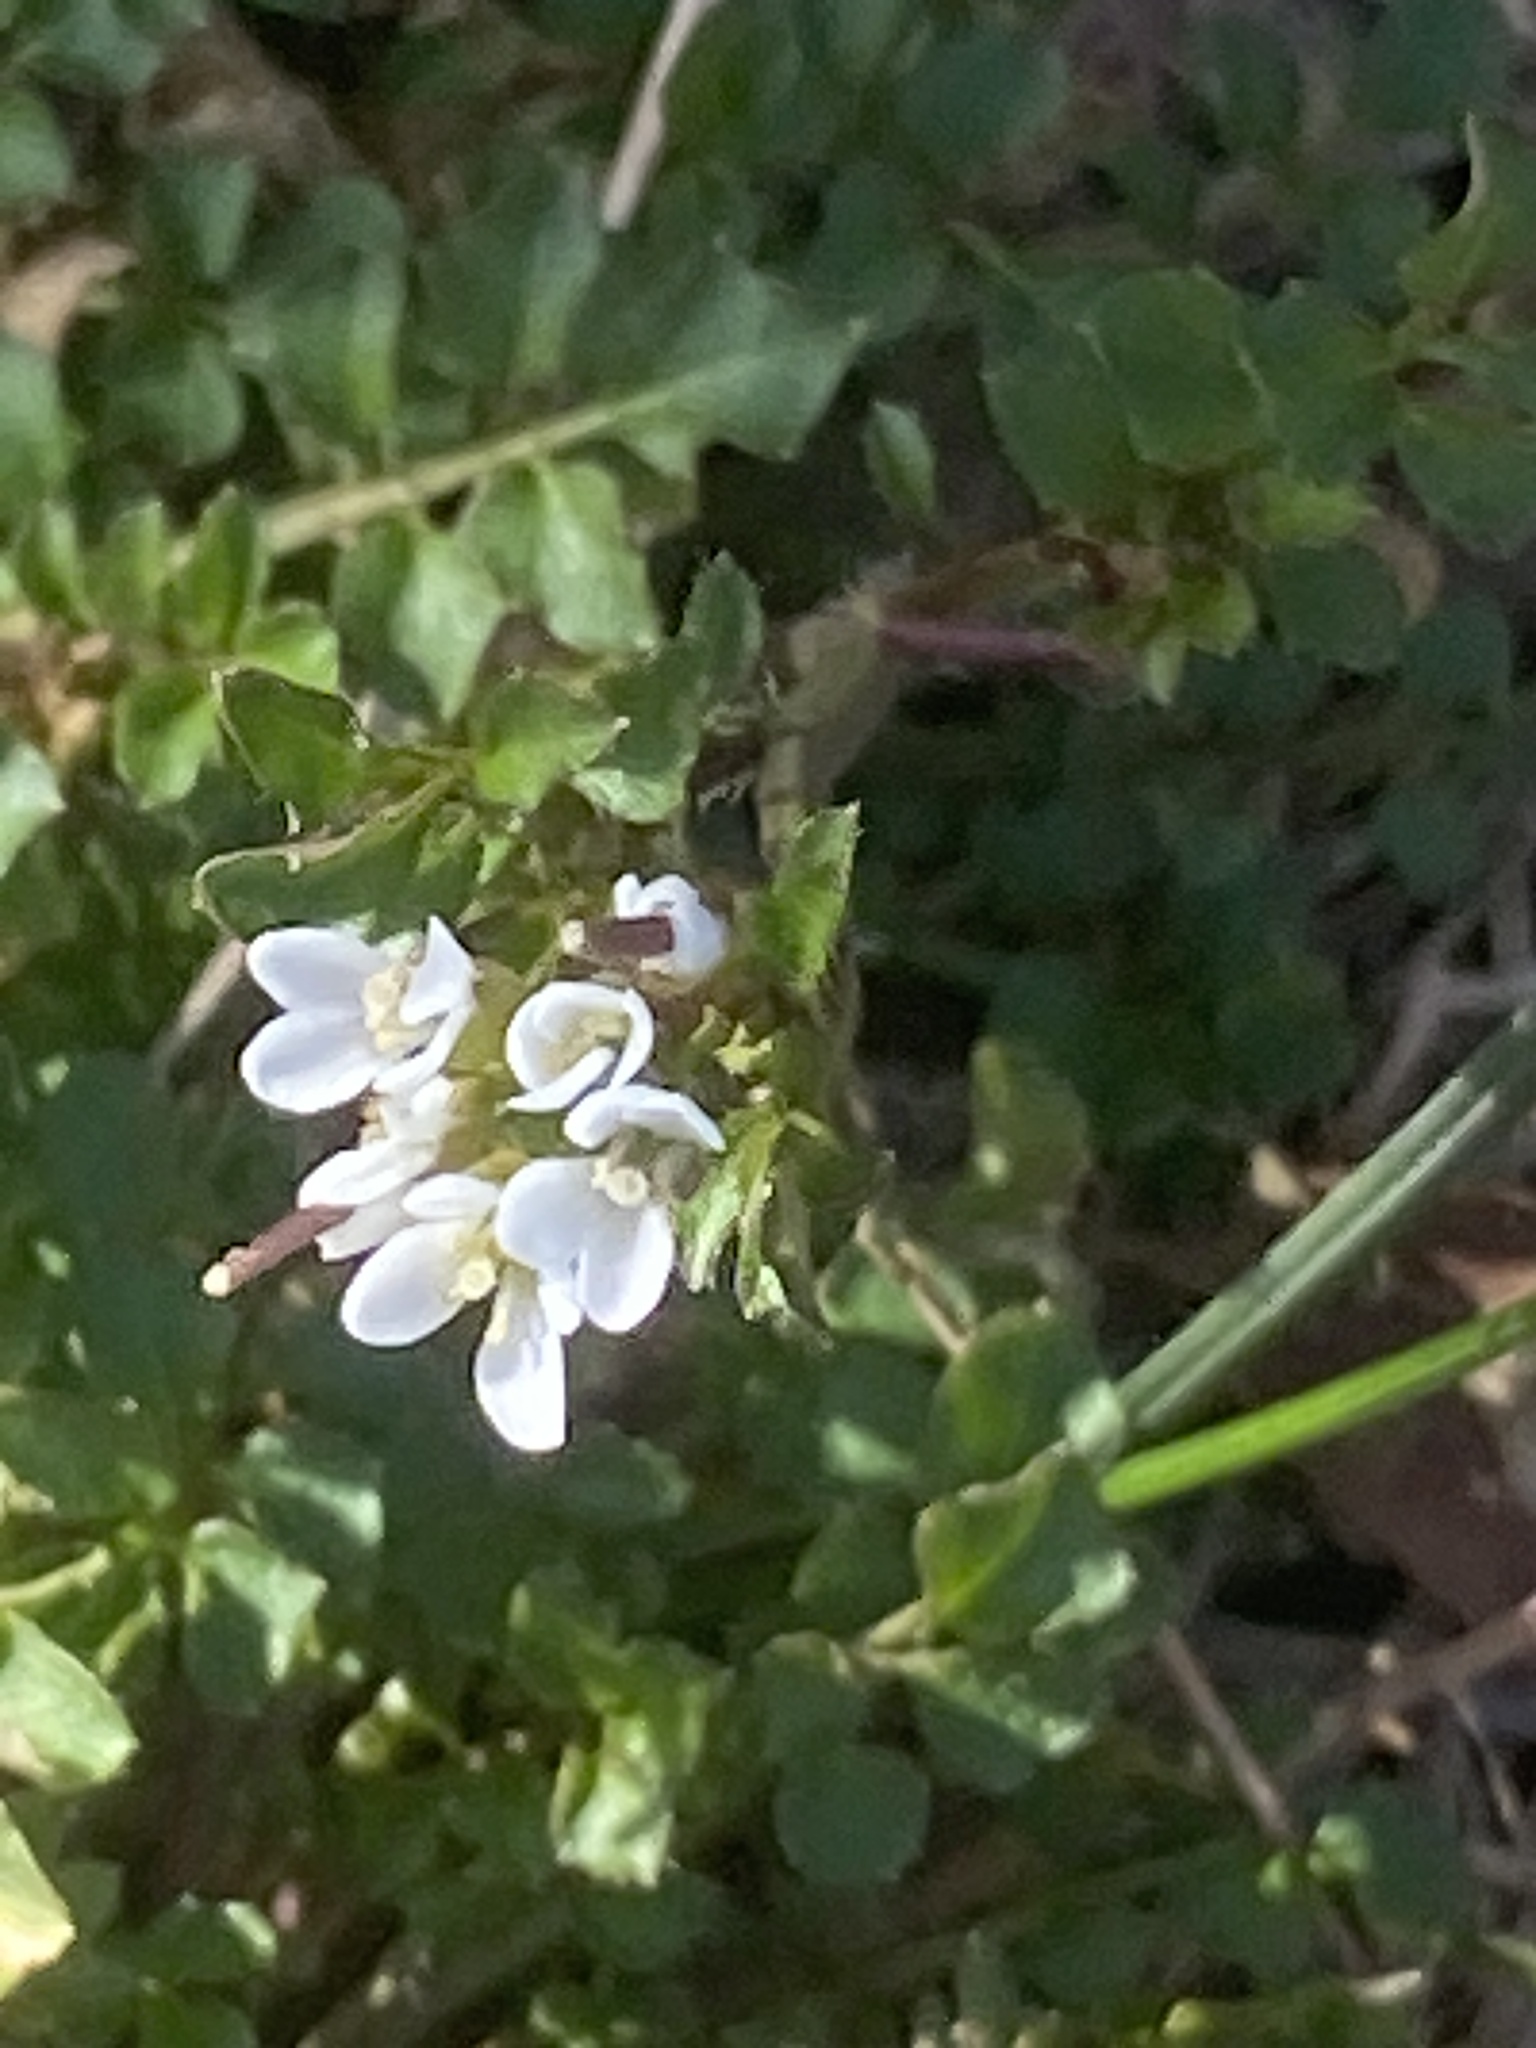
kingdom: Plantae
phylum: Tracheophyta
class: Magnoliopsida
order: Brassicales
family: Brassicaceae
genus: Cardamine
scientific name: Cardamine hirsuta
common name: Hairy bittercress
